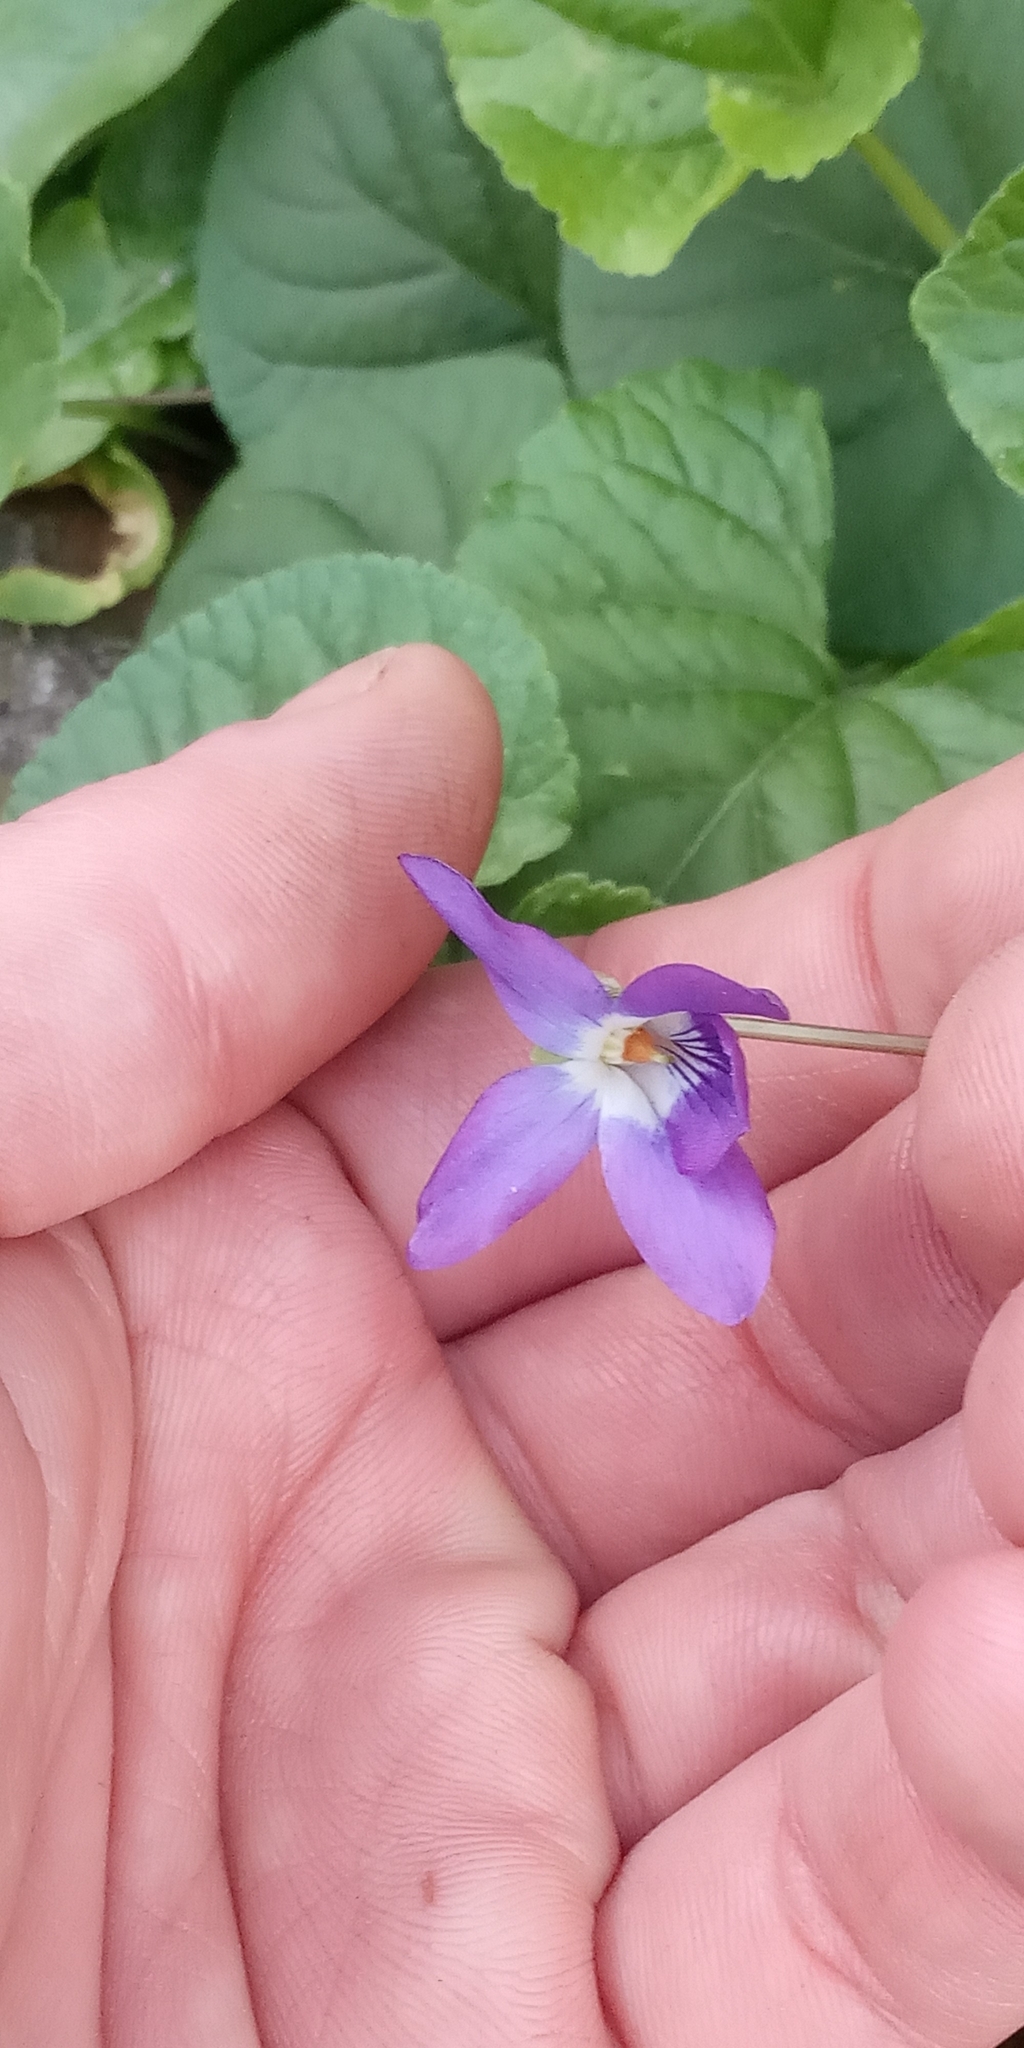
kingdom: Plantae
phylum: Tracheophyta
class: Magnoliopsida
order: Malpighiales
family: Violaceae
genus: Viola
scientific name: Viola odorata
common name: Sweet violet
